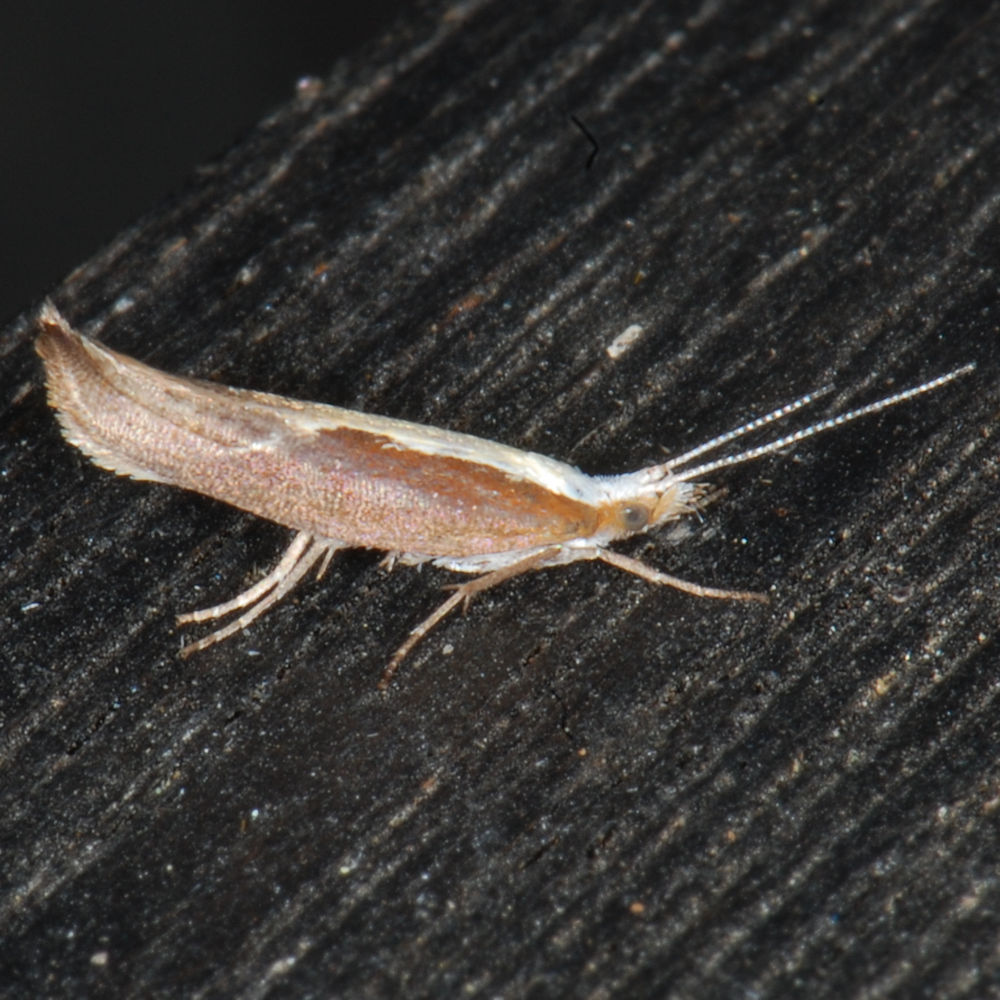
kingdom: Animalia
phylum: Arthropoda
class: Insecta
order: Lepidoptera
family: Ypsolophidae
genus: Ypsolopha
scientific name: Ypsolopha dentella
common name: Honeysuckle moth
